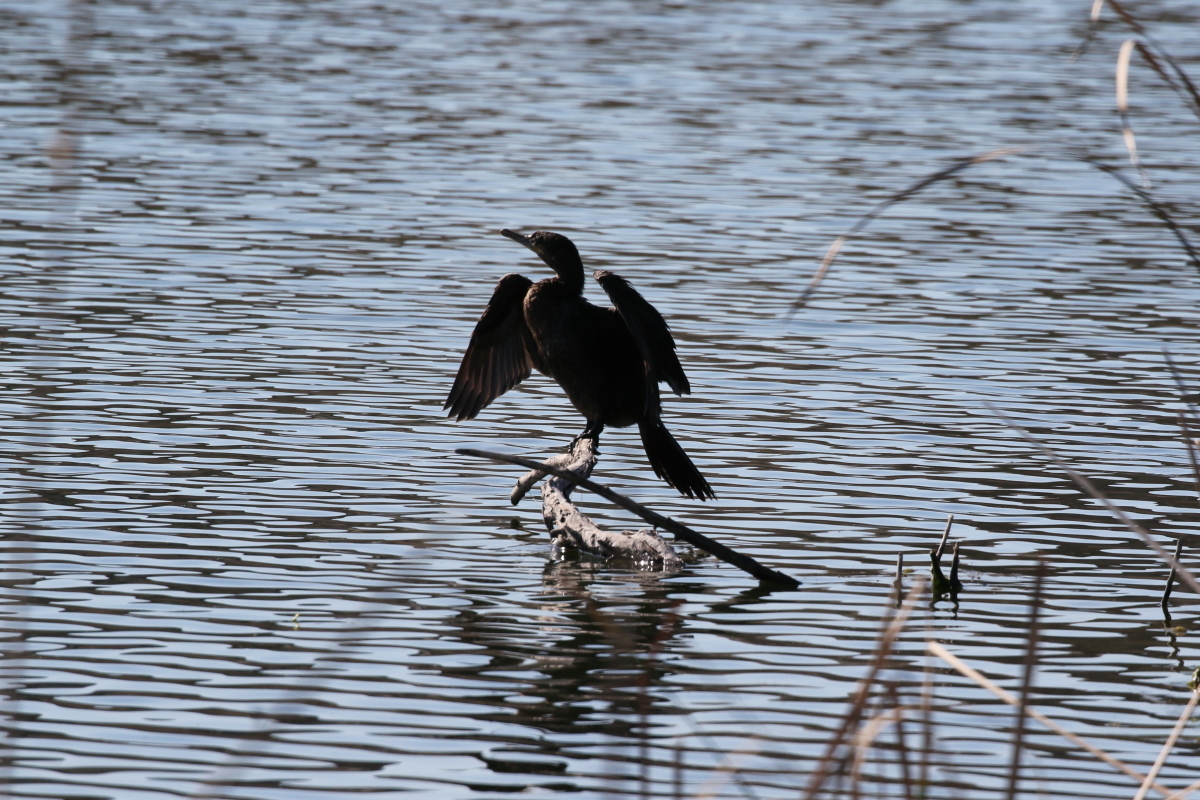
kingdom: Animalia
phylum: Chordata
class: Aves
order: Suliformes
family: Phalacrocoracidae
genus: Phalacrocorax
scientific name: Phalacrocorax brasilianus
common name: Neotropic cormorant
